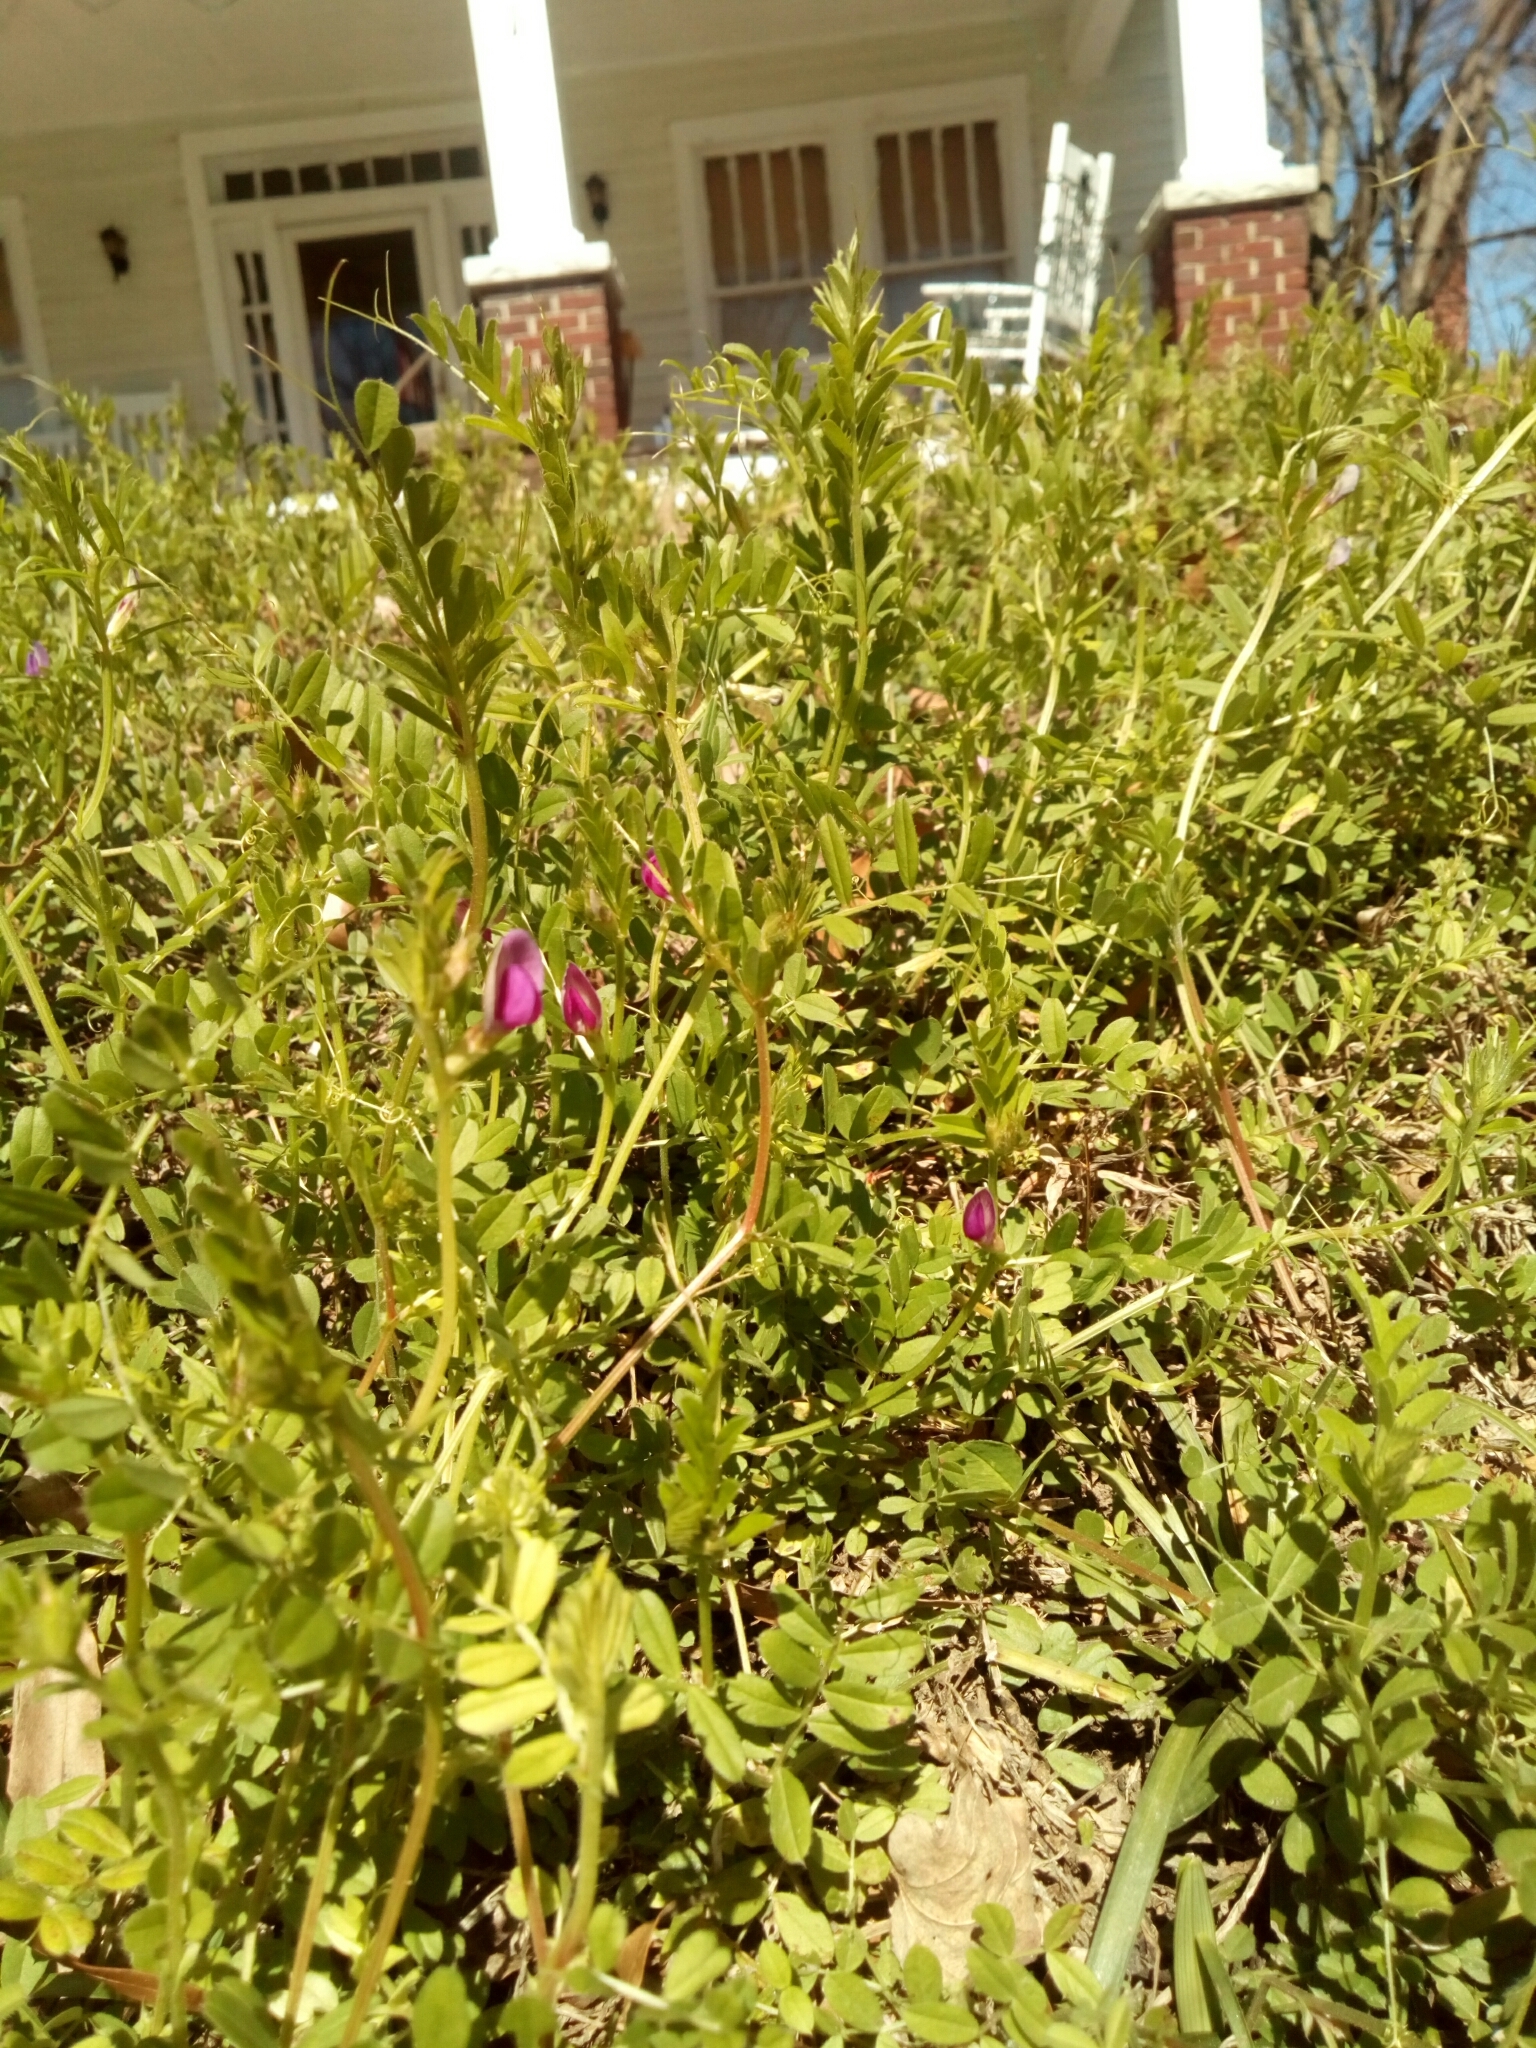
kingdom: Plantae
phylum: Tracheophyta
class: Magnoliopsida
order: Fabales
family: Fabaceae
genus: Vicia
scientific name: Vicia sativa
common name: Garden vetch
